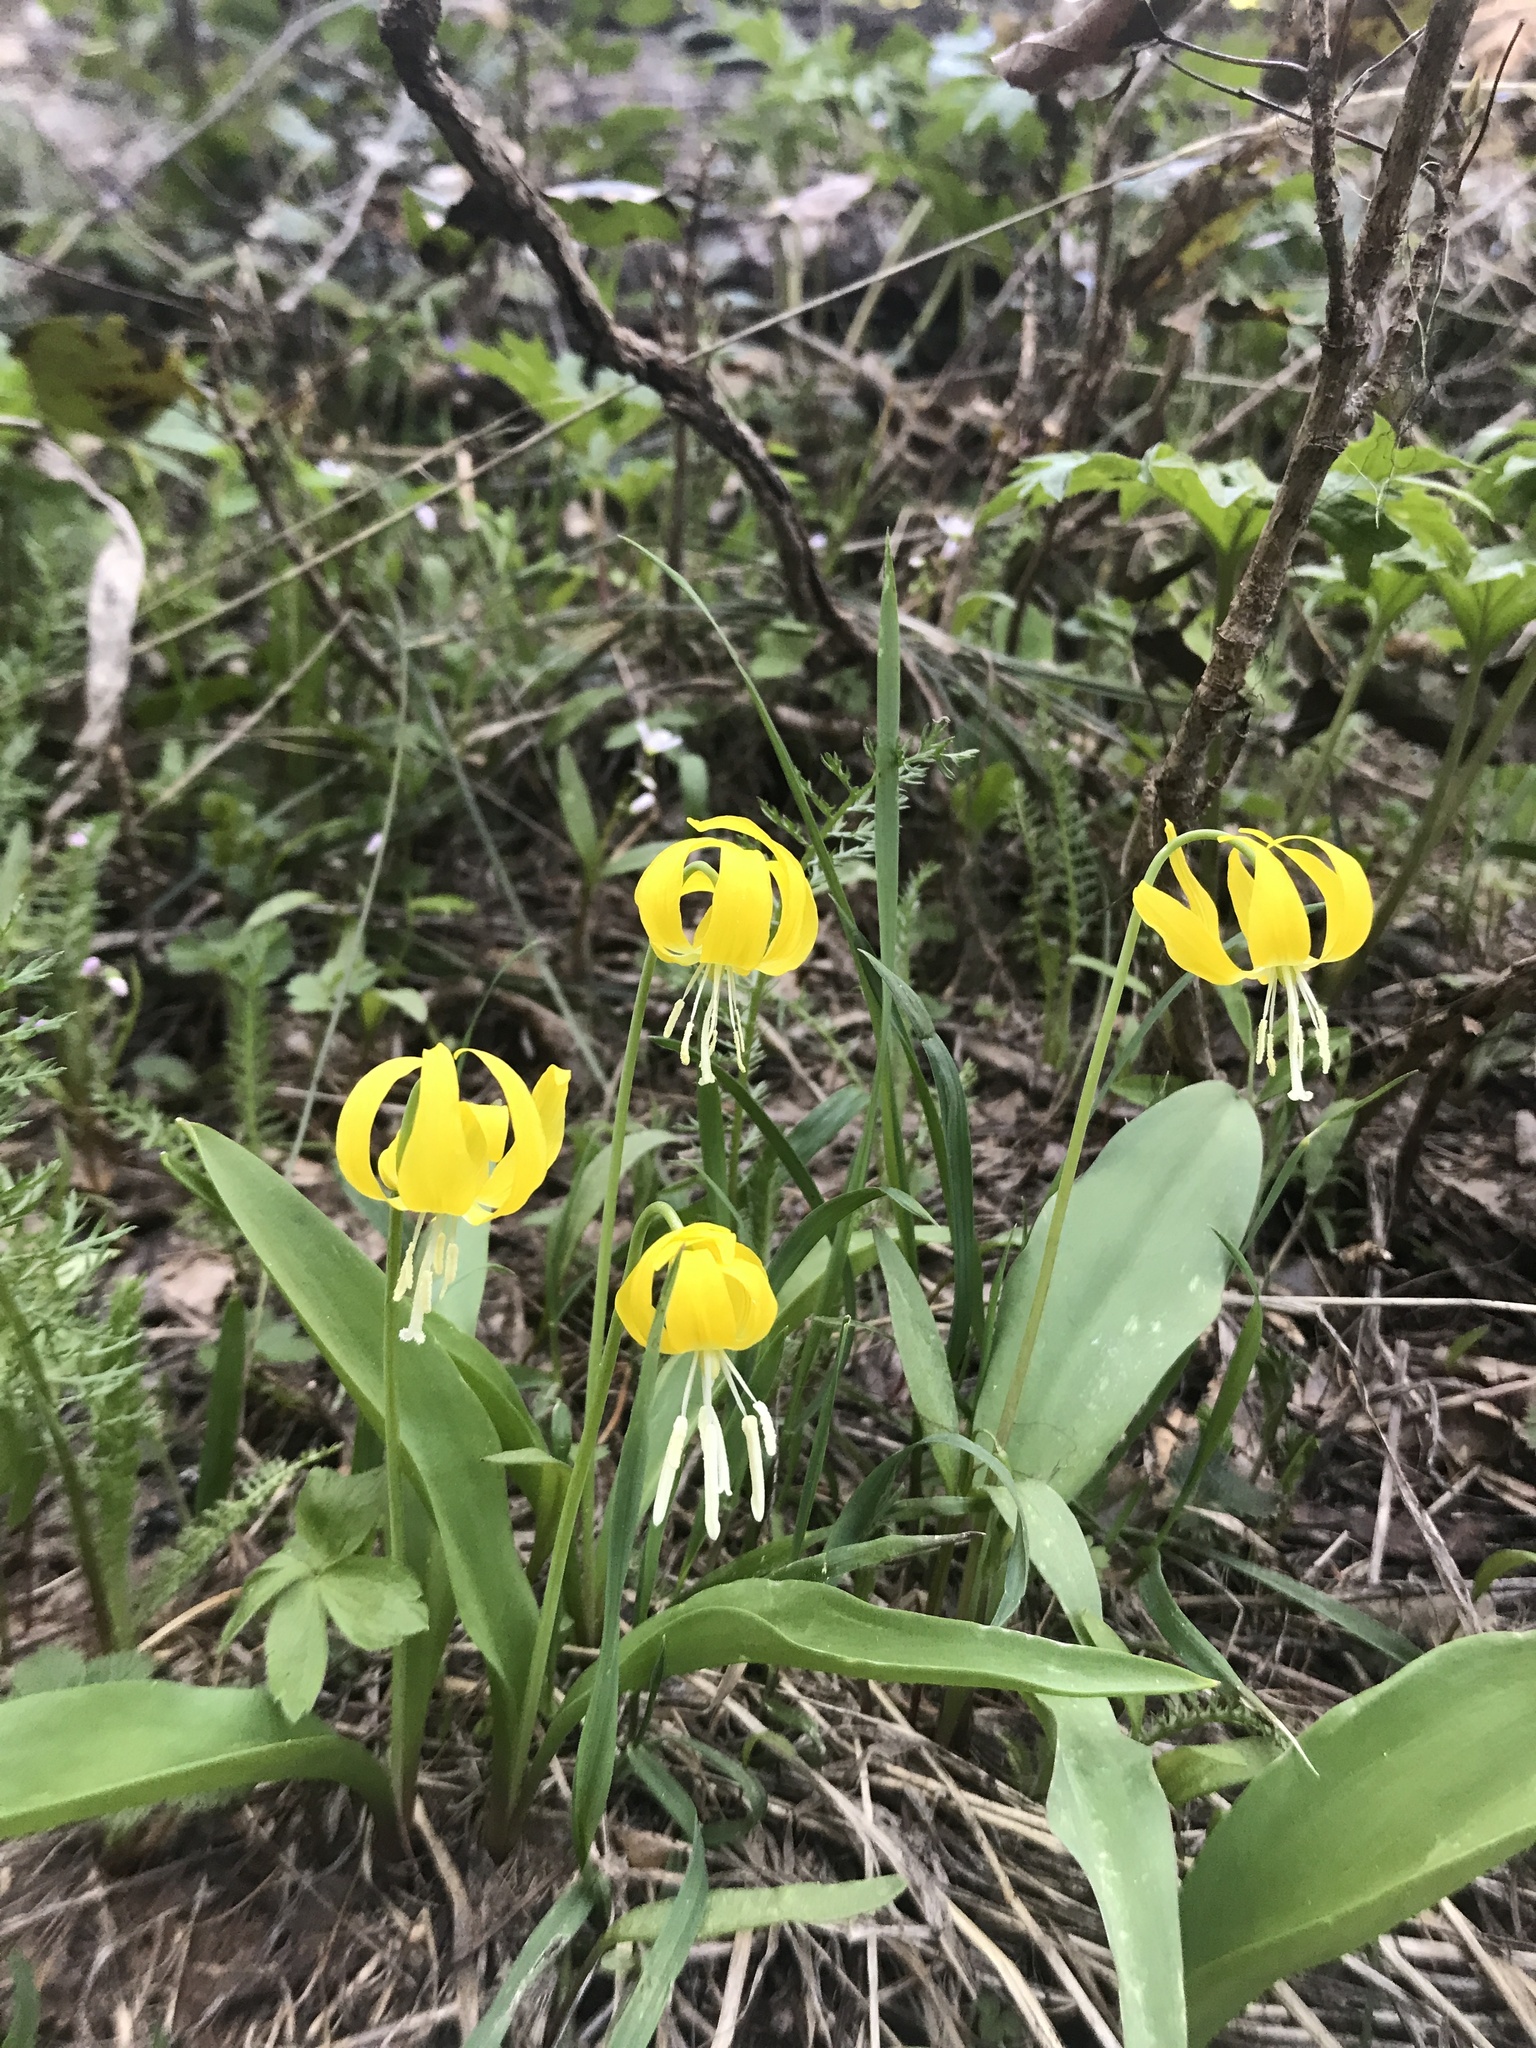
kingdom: Plantae
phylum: Tracheophyta
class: Liliopsida
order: Liliales
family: Liliaceae
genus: Erythronium
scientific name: Erythronium grandiflorum
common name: Avalanche-lily
